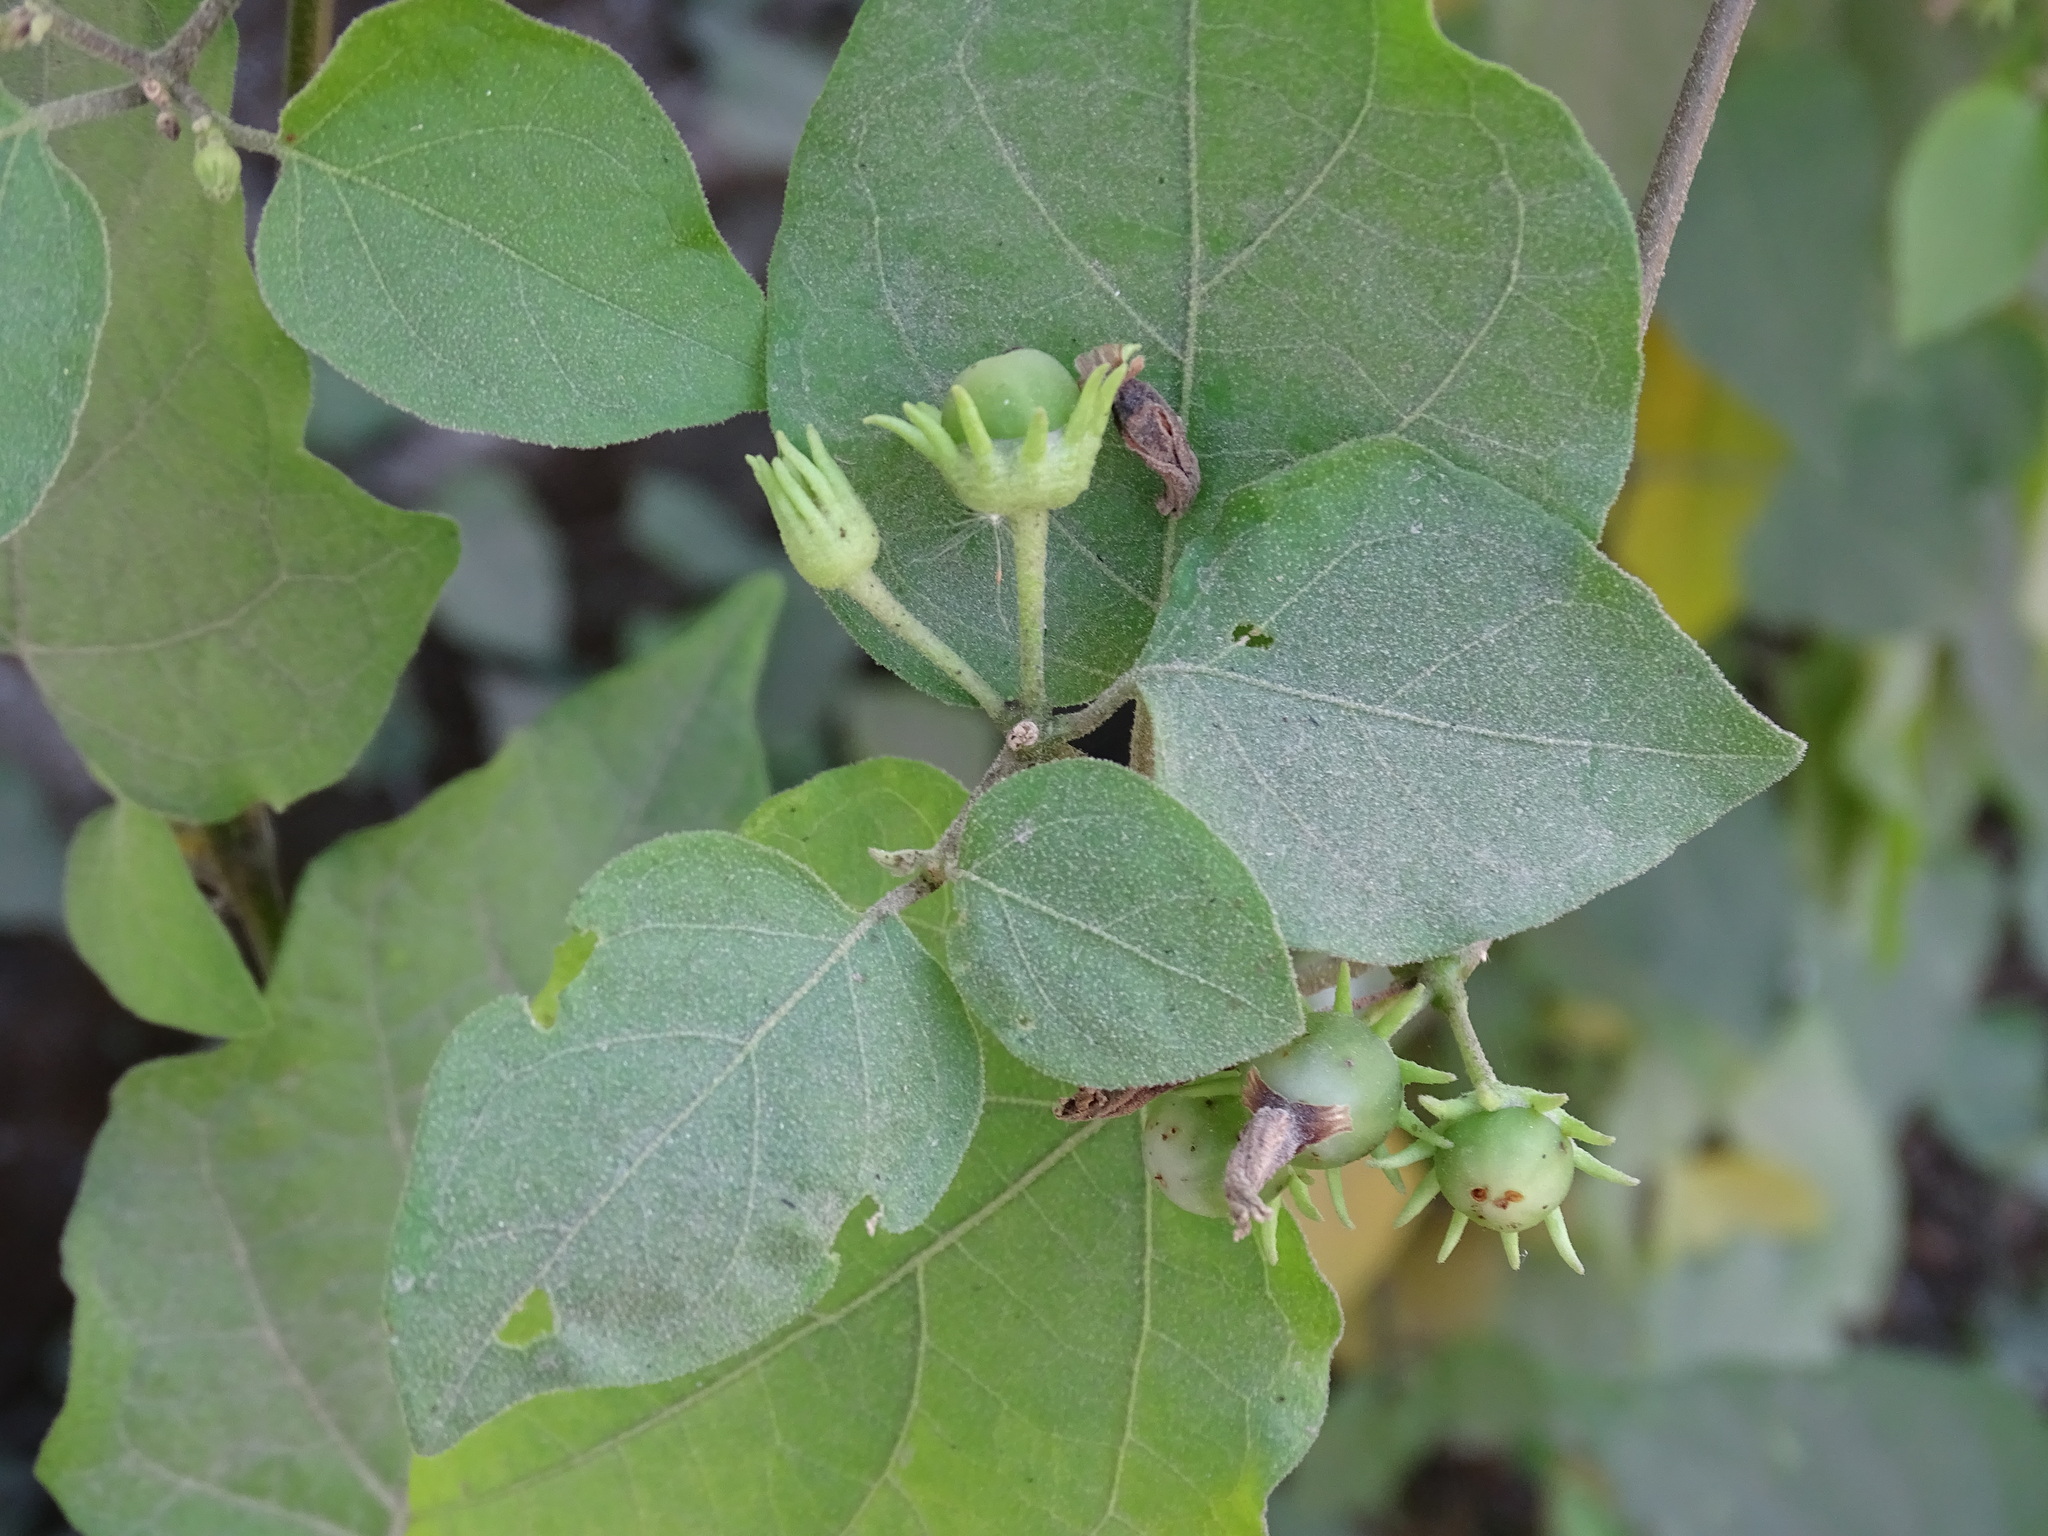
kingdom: Plantae
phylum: Tracheophyta
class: Magnoliopsida
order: Solanales
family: Solanaceae
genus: Lycianthes
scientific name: Lycianthes scandens
